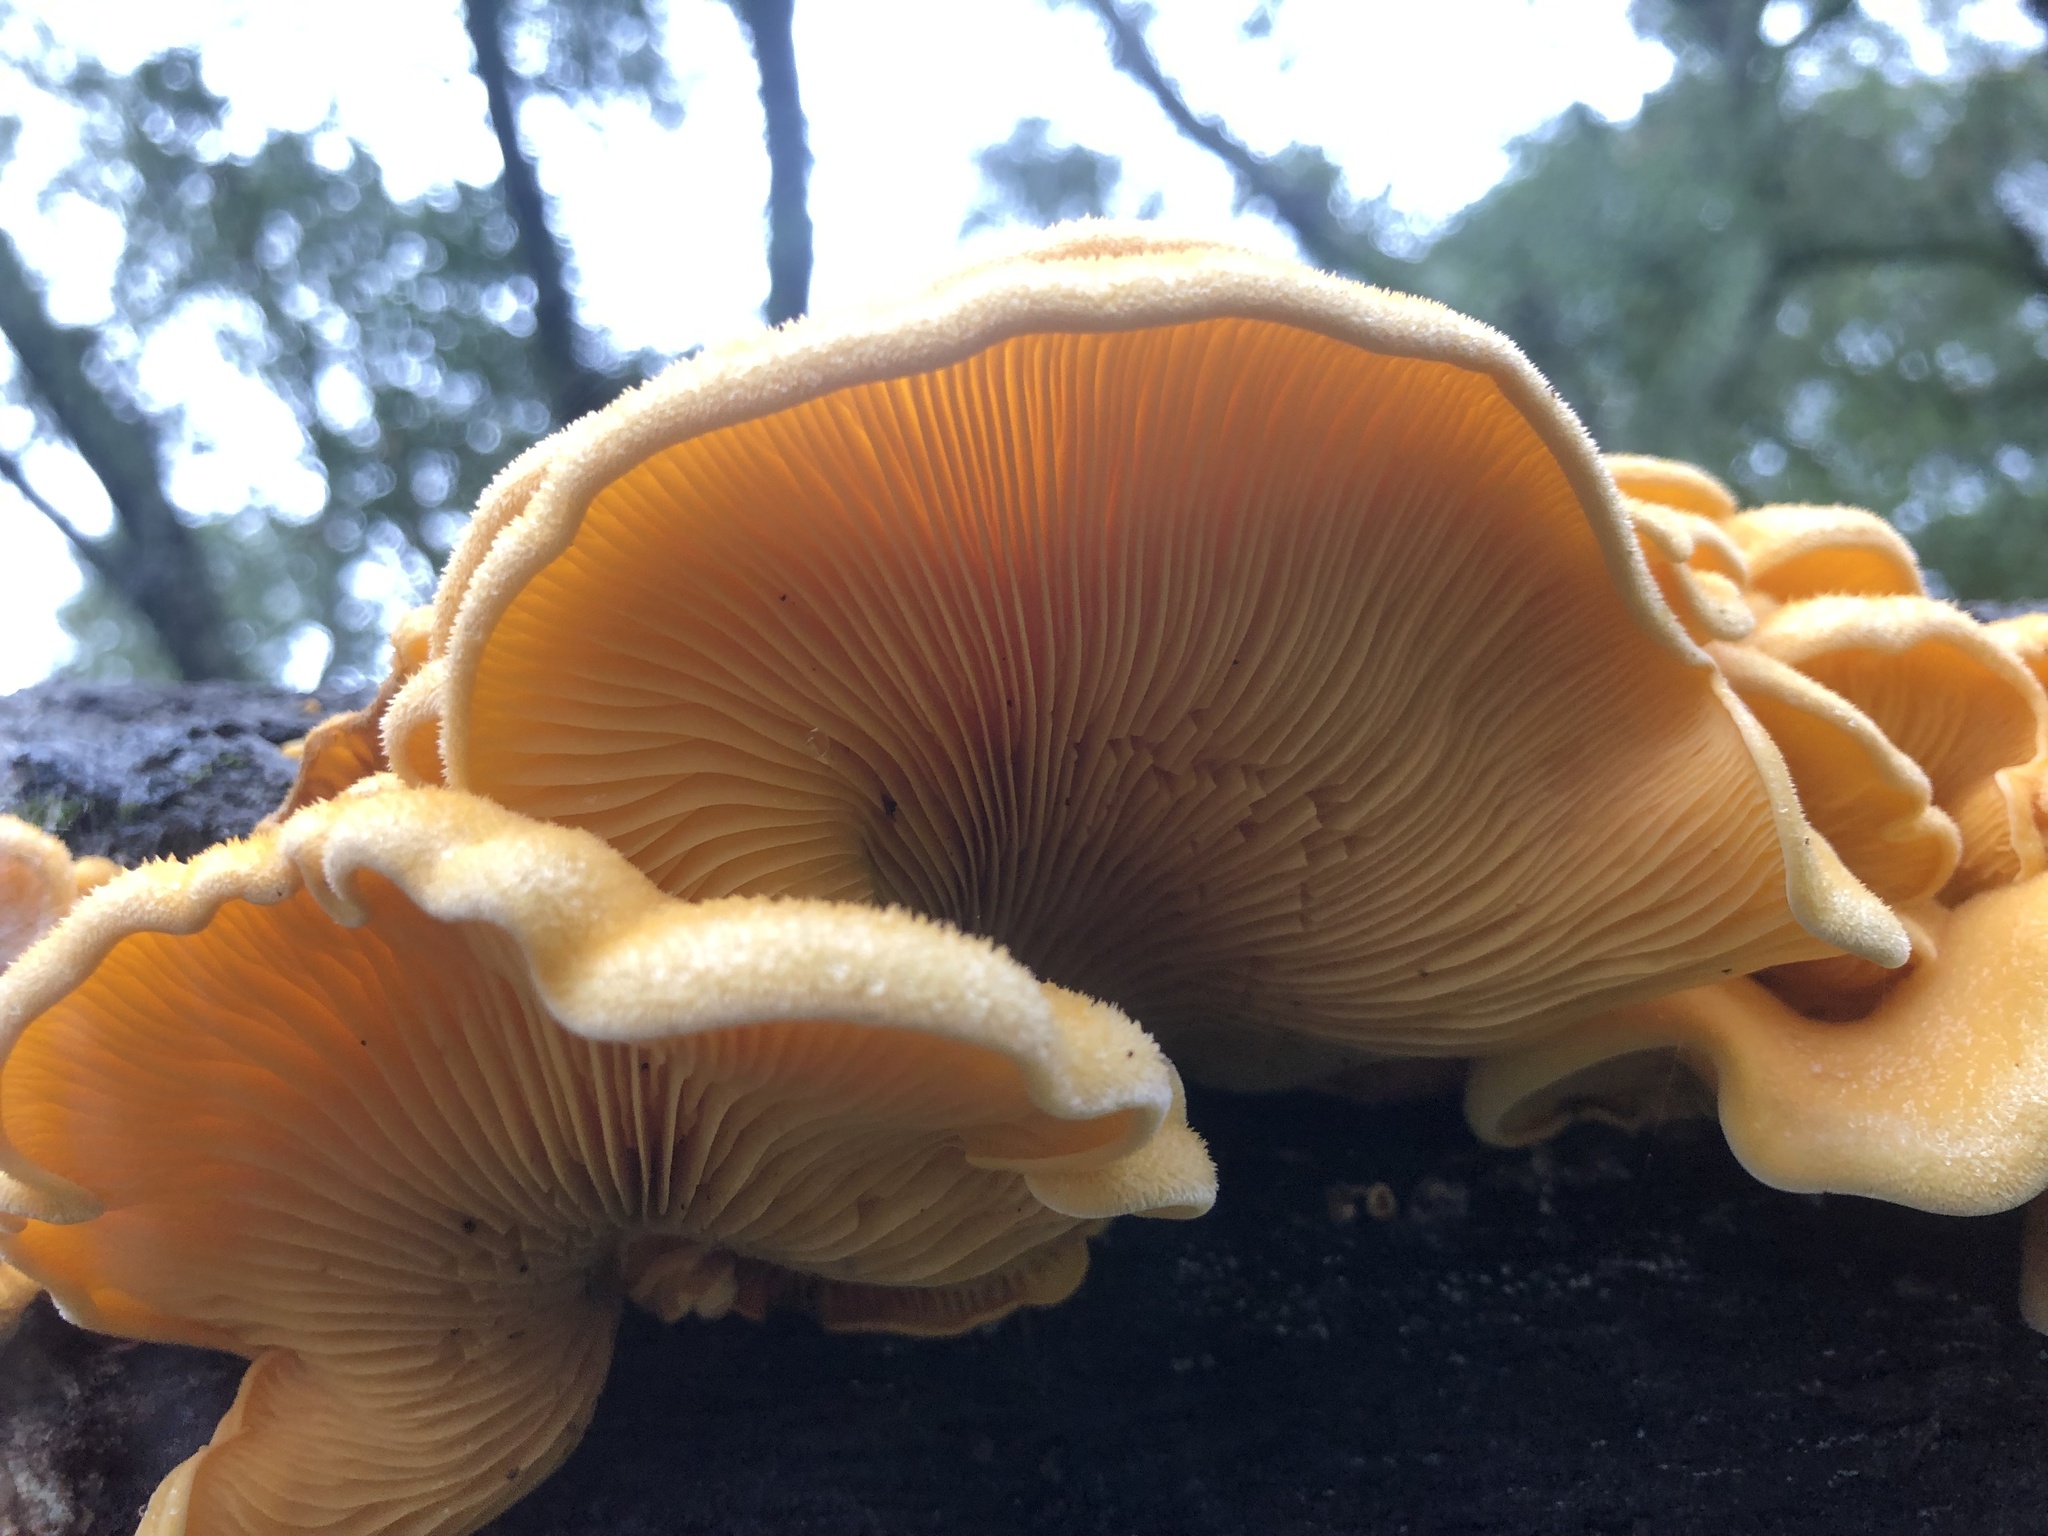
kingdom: Fungi
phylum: Basidiomycota
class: Agaricomycetes
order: Agaricales
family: Phyllotopsidaceae
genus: Phyllotopsis
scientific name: Phyllotopsis nidulans
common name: Orange mock oyster
